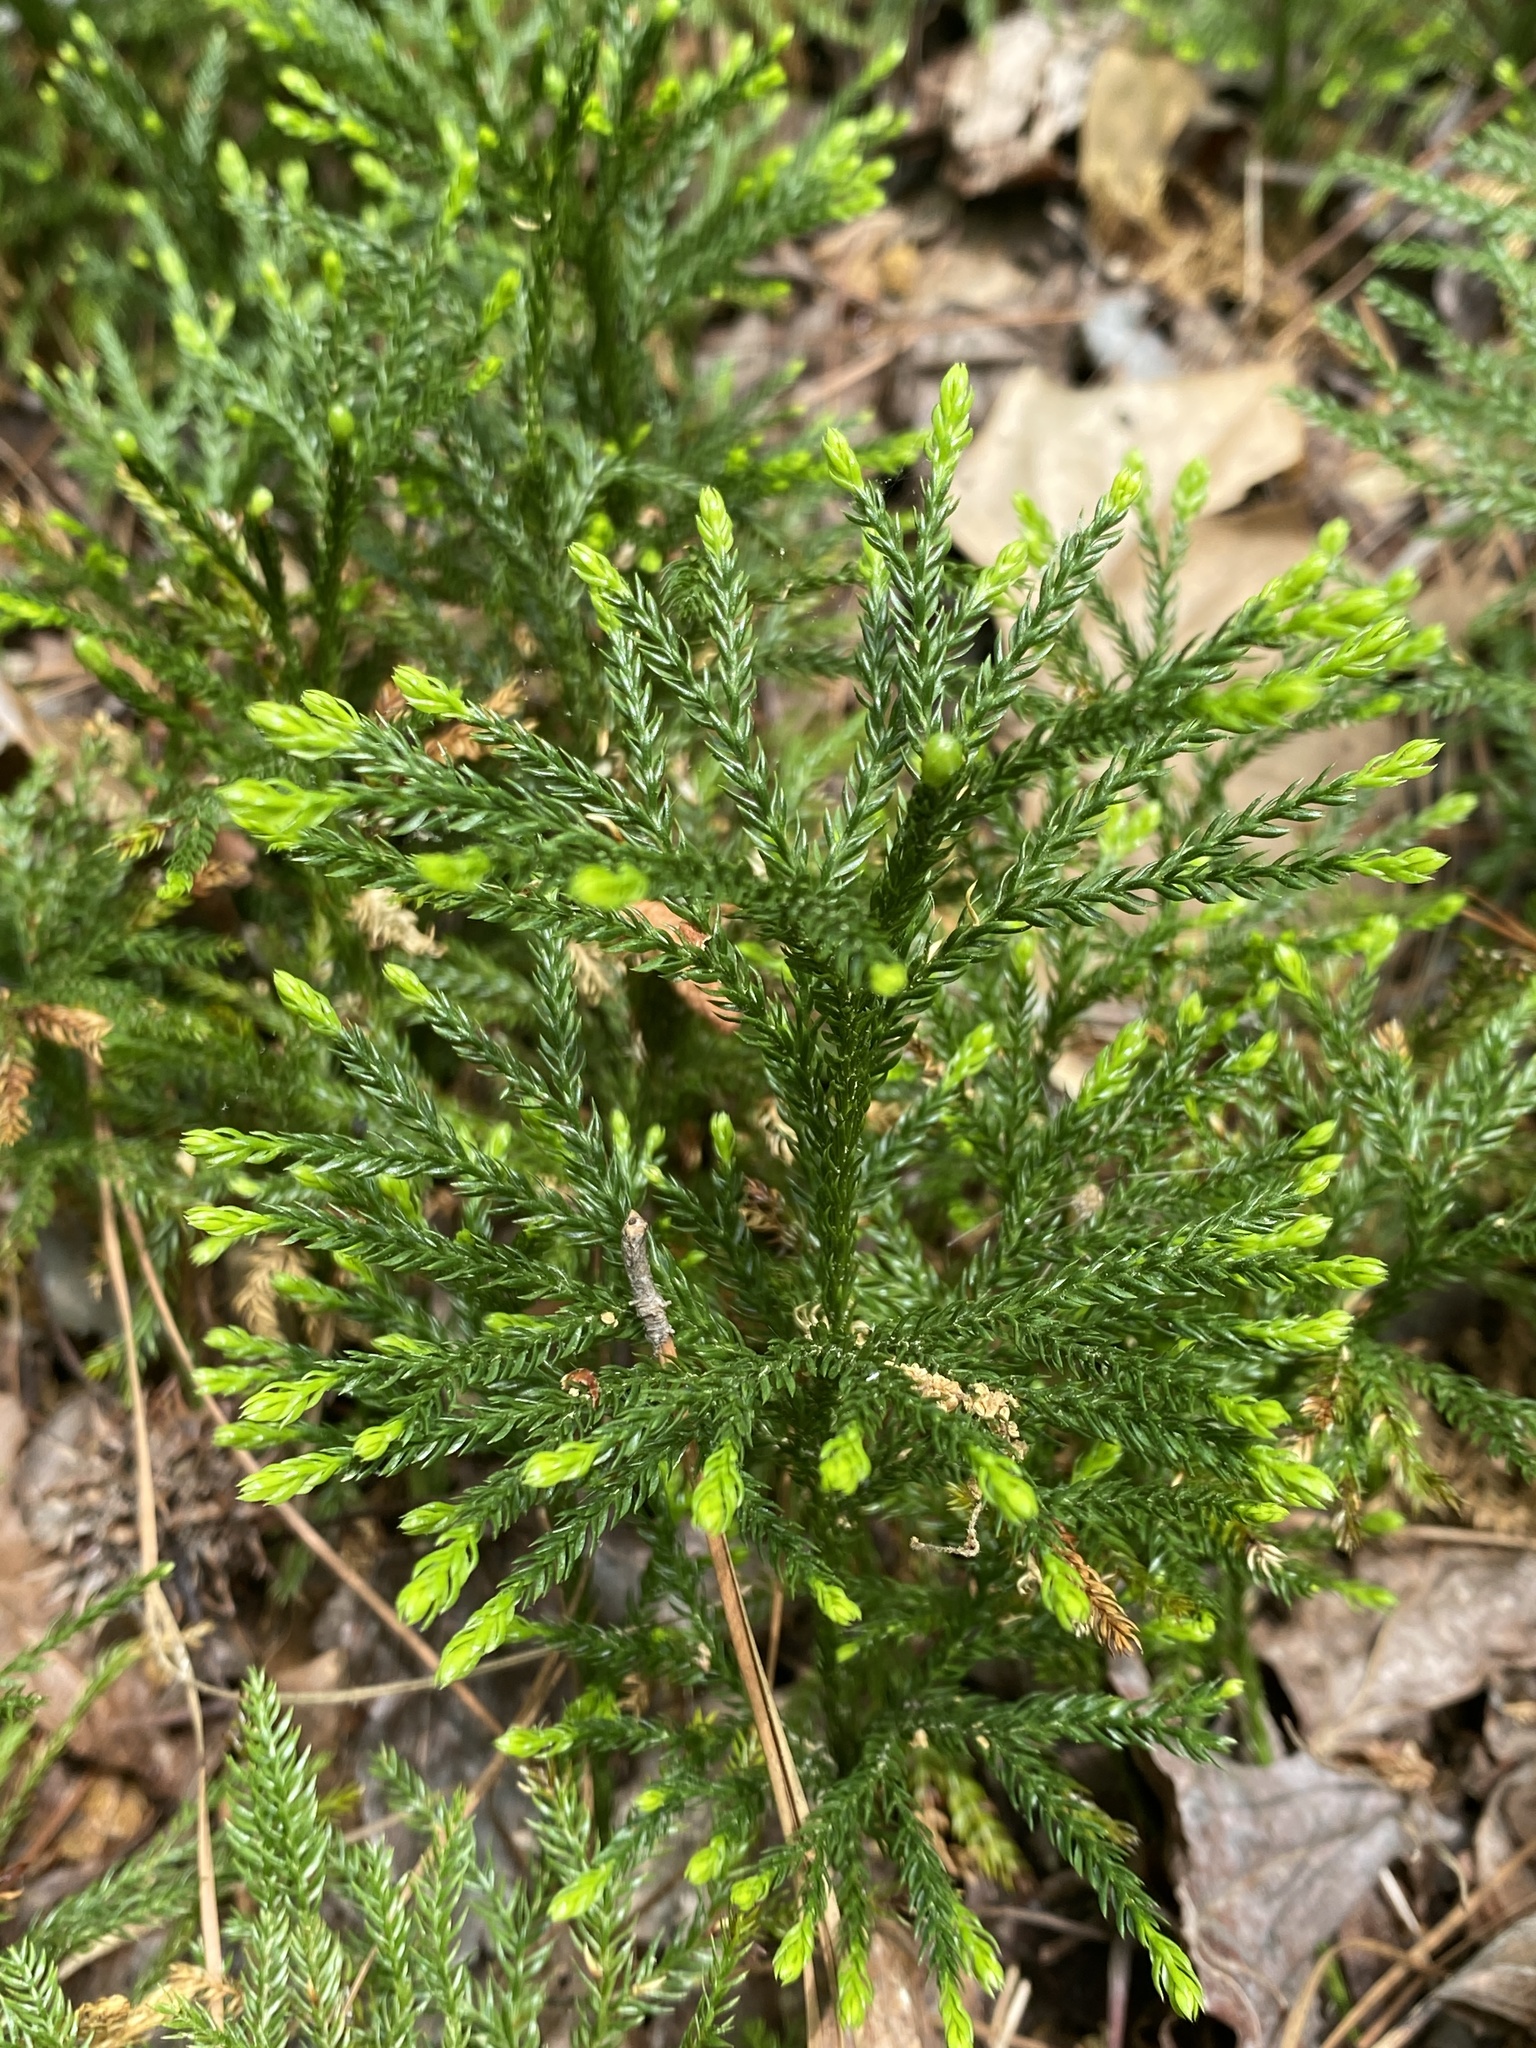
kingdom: Plantae
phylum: Tracheophyta
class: Lycopodiopsida
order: Lycopodiales
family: Lycopodiaceae
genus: Dendrolycopodium
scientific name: Dendrolycopodium obscurum
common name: Common ground-pine
